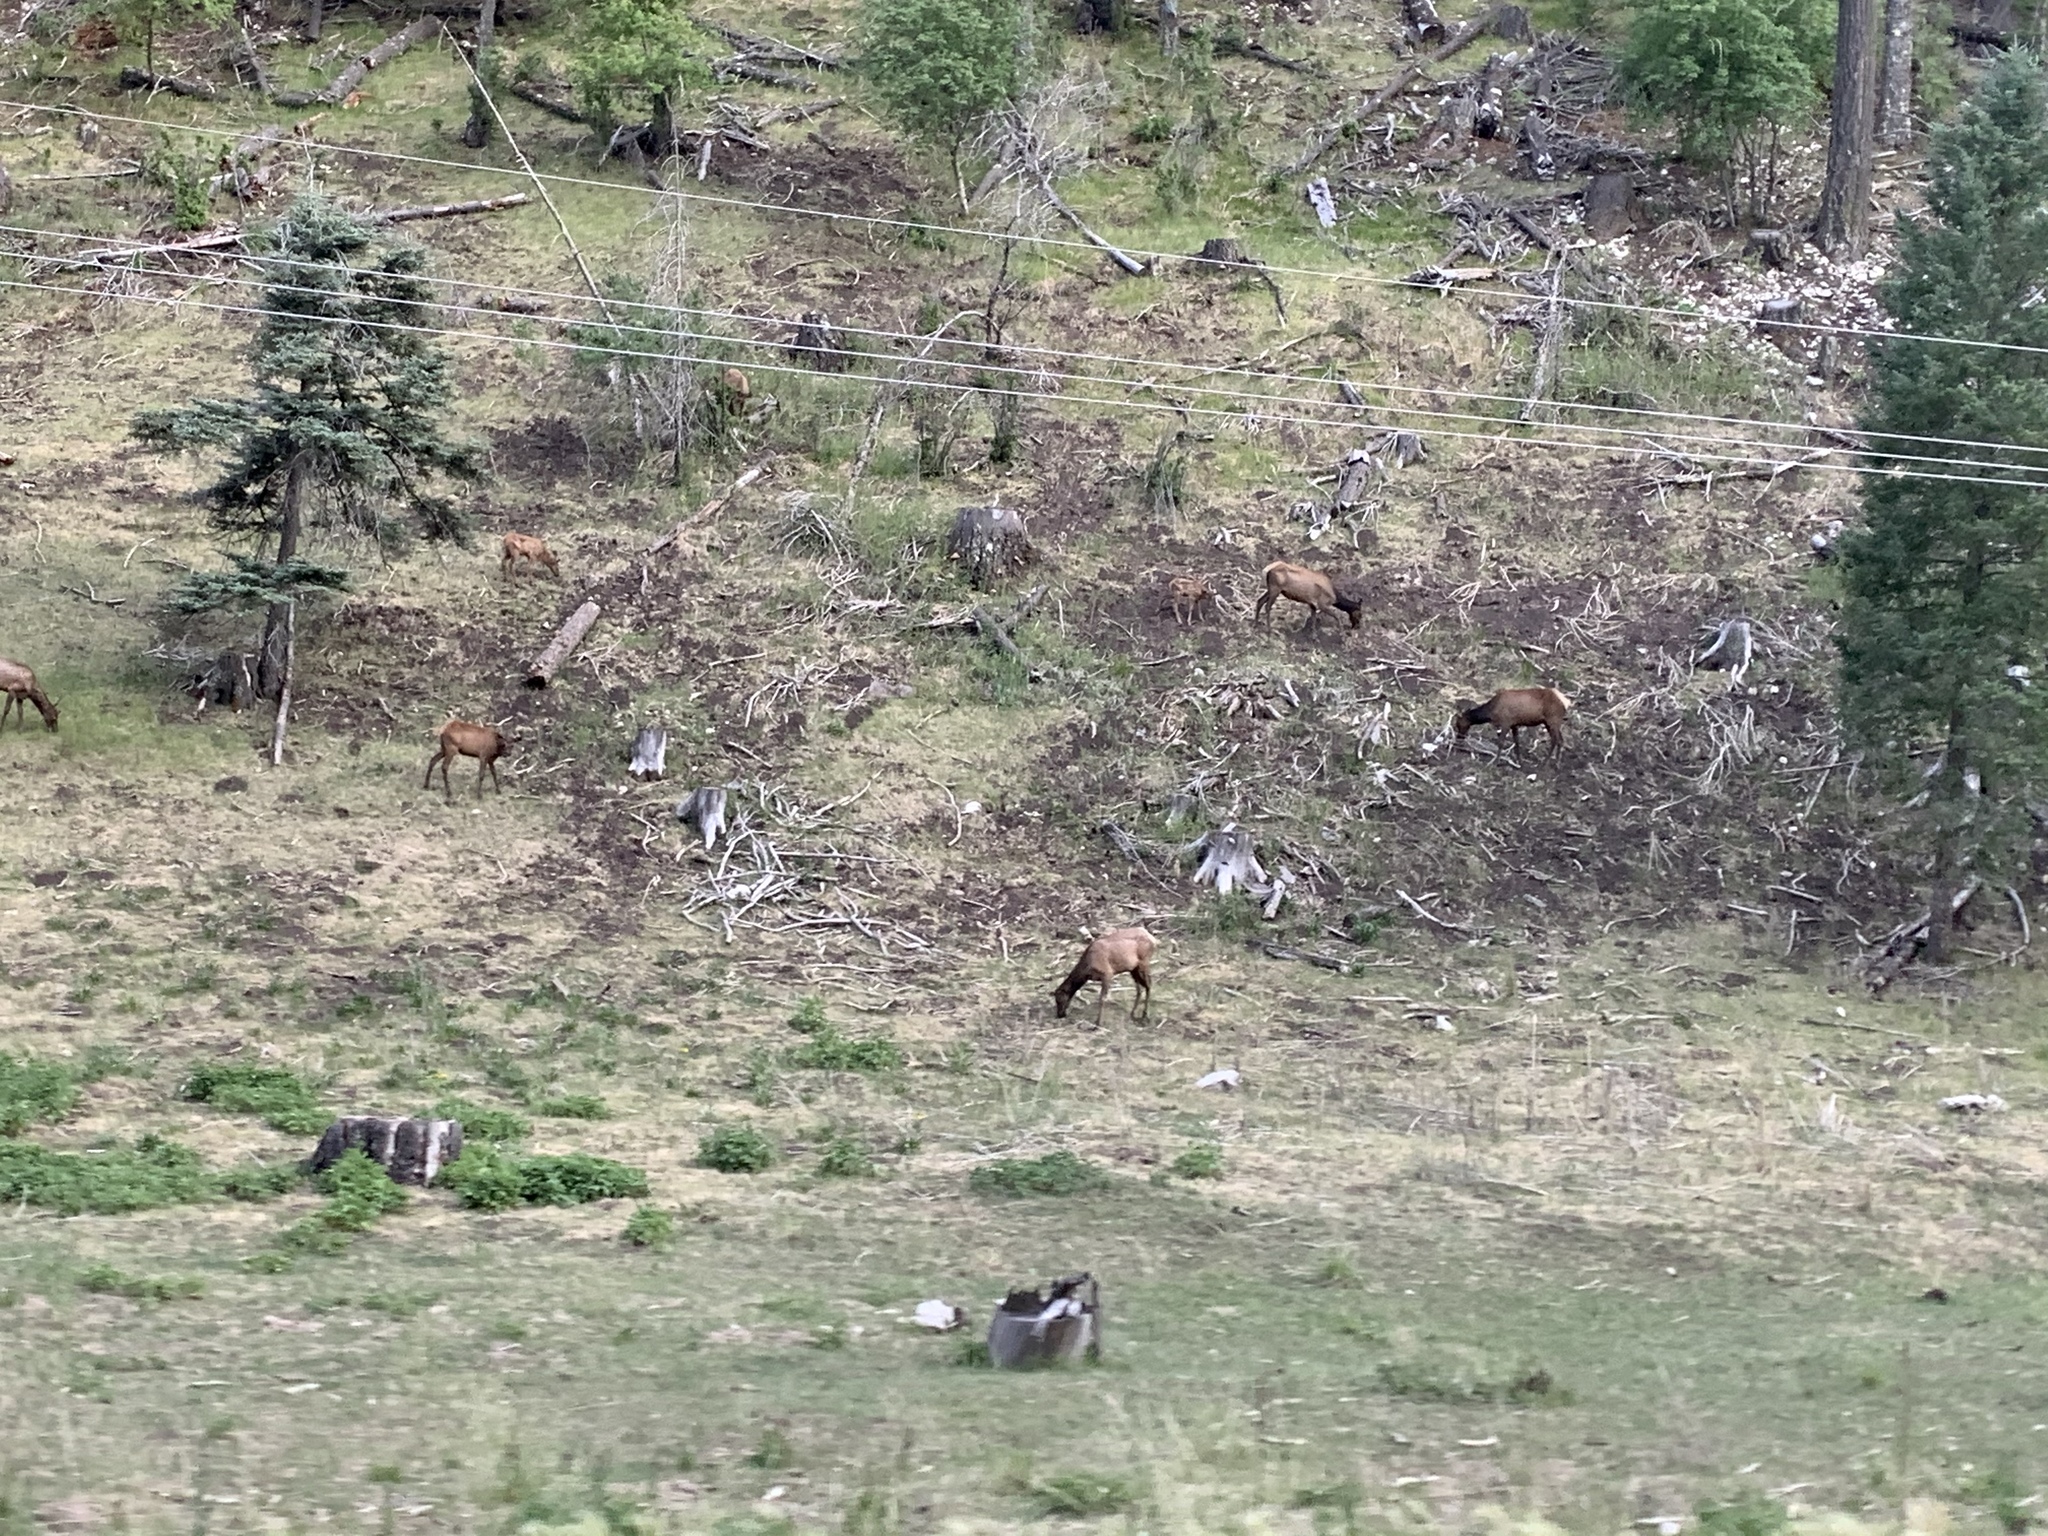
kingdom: Animalia
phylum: Chordata
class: Mammalia
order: Artiodactyla
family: Cervidae
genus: Cervus
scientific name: Cervus elaphus
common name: Red deer
